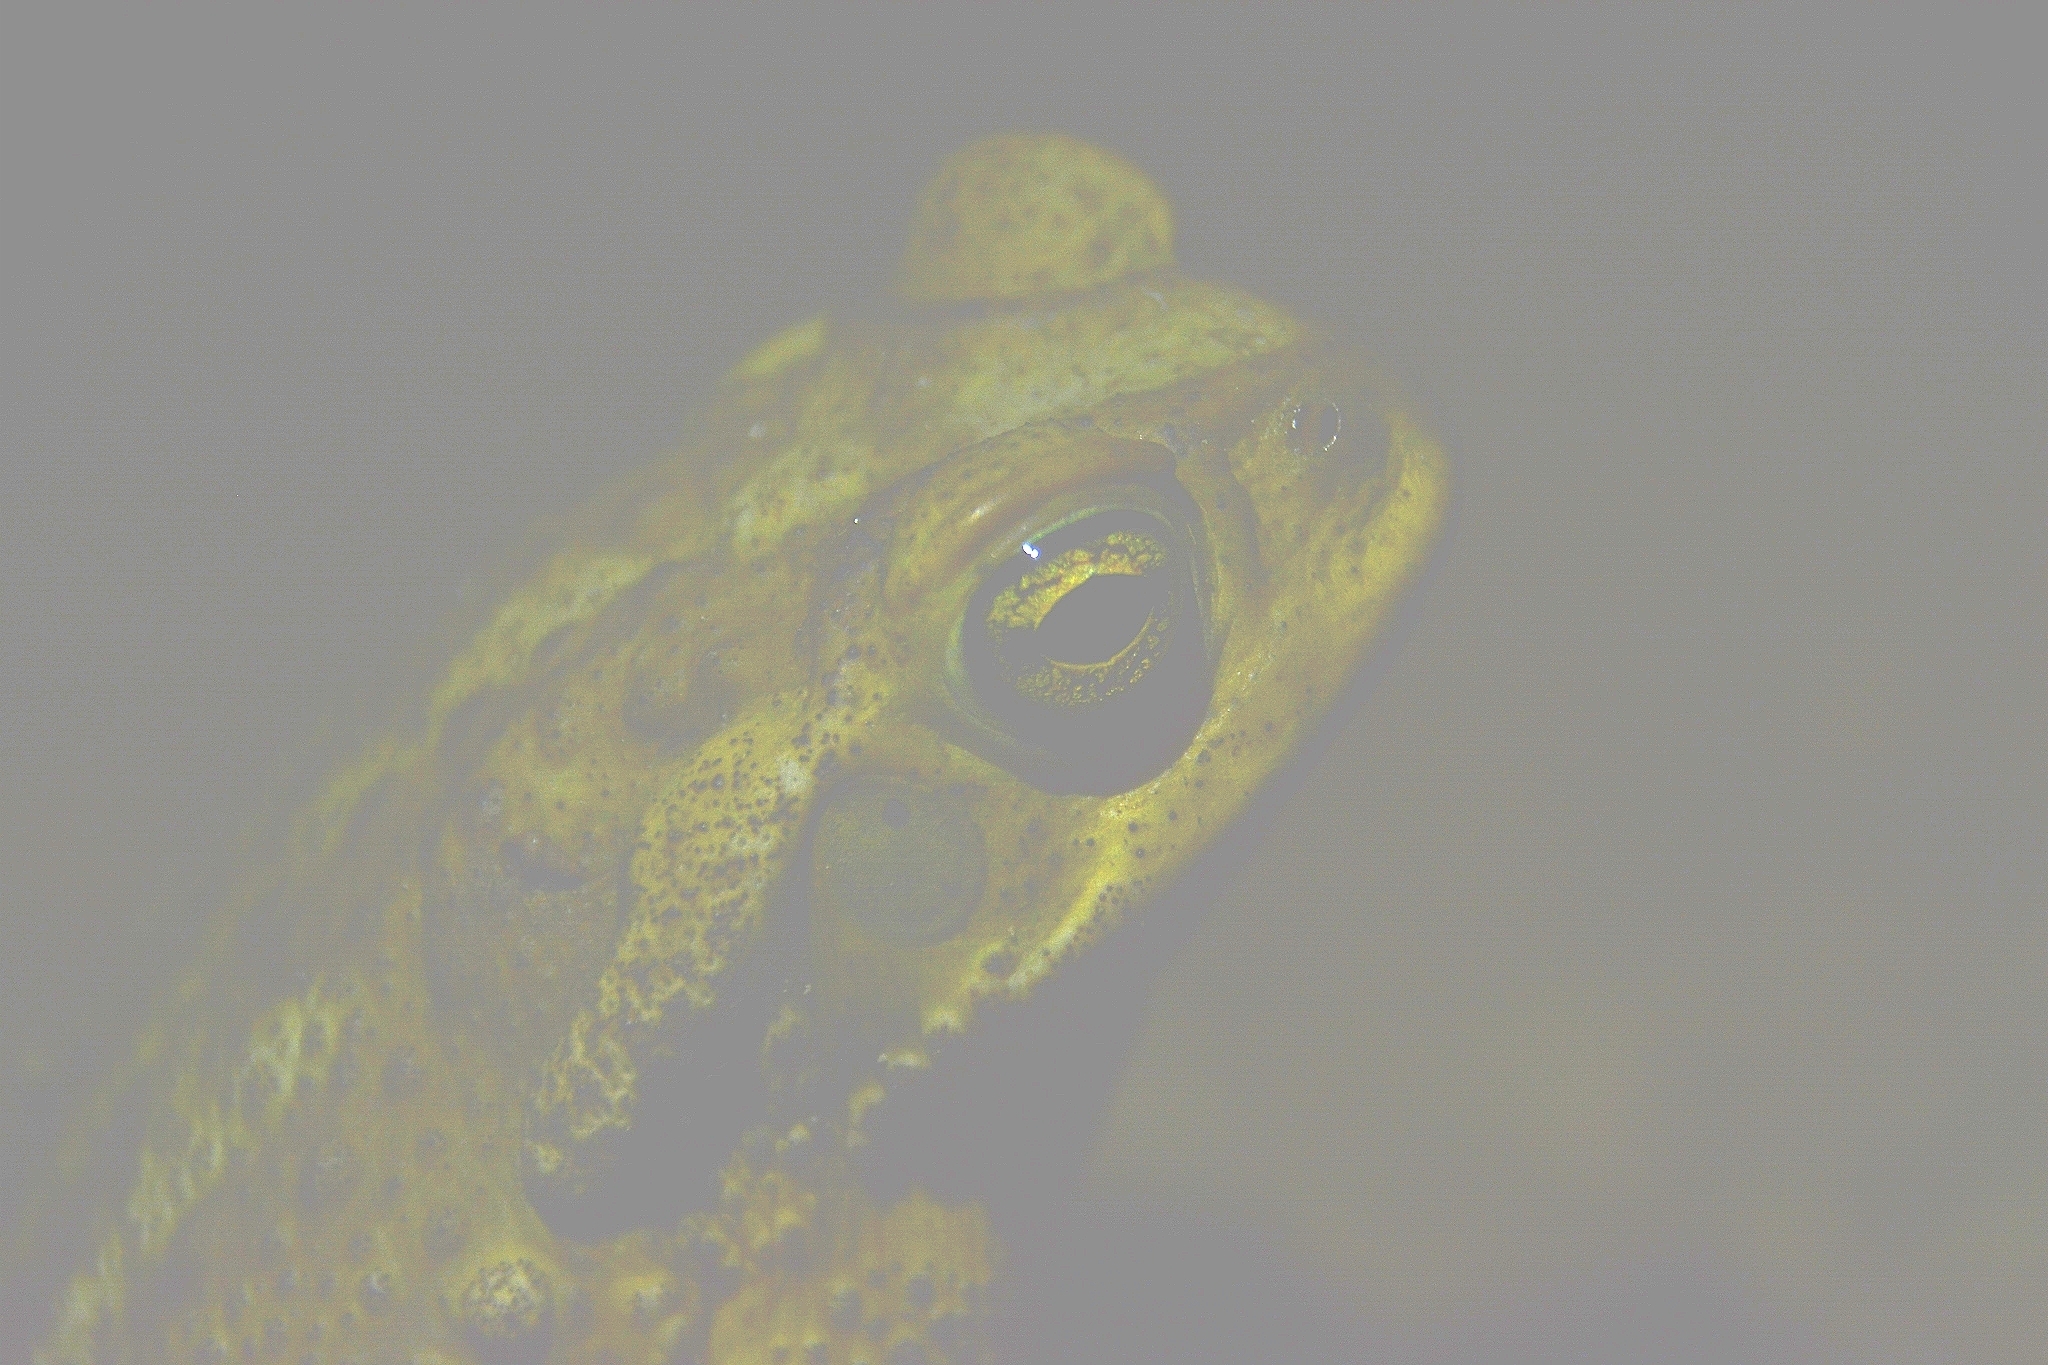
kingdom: Animalia
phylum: Chordata
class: Amphibia
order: Anura
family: Bufonidae
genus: Rhinella
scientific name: Rhinella arenarum
